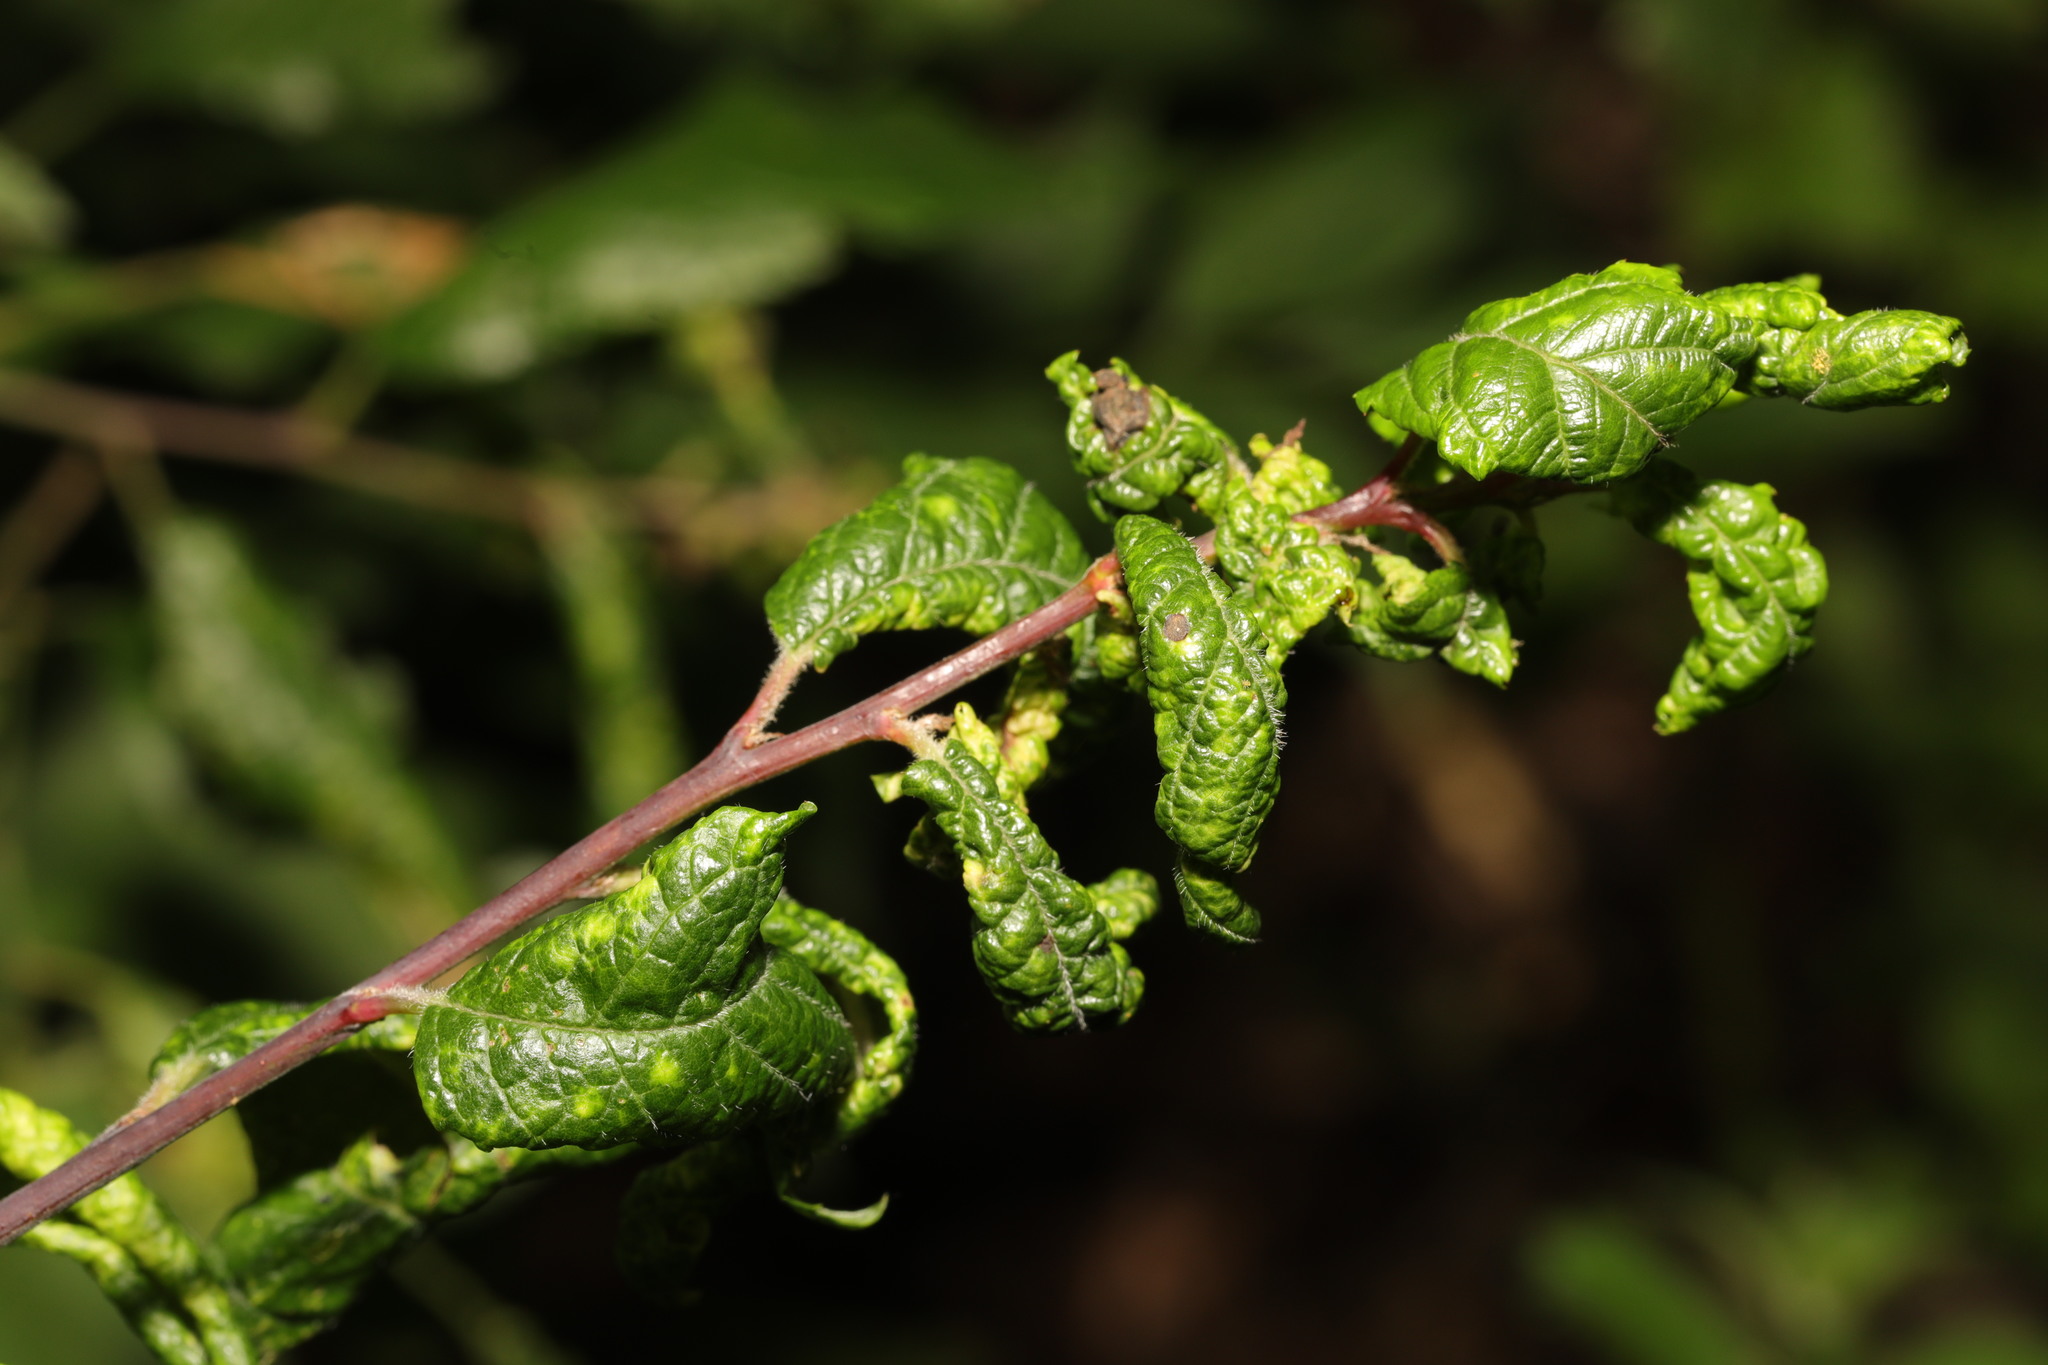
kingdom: Animalia
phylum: Arthropoda
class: Insecta
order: Hemiptera
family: Aphididae
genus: Hyalopterus
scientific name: Hyalopterus pruni
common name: Mealy plum aphid
